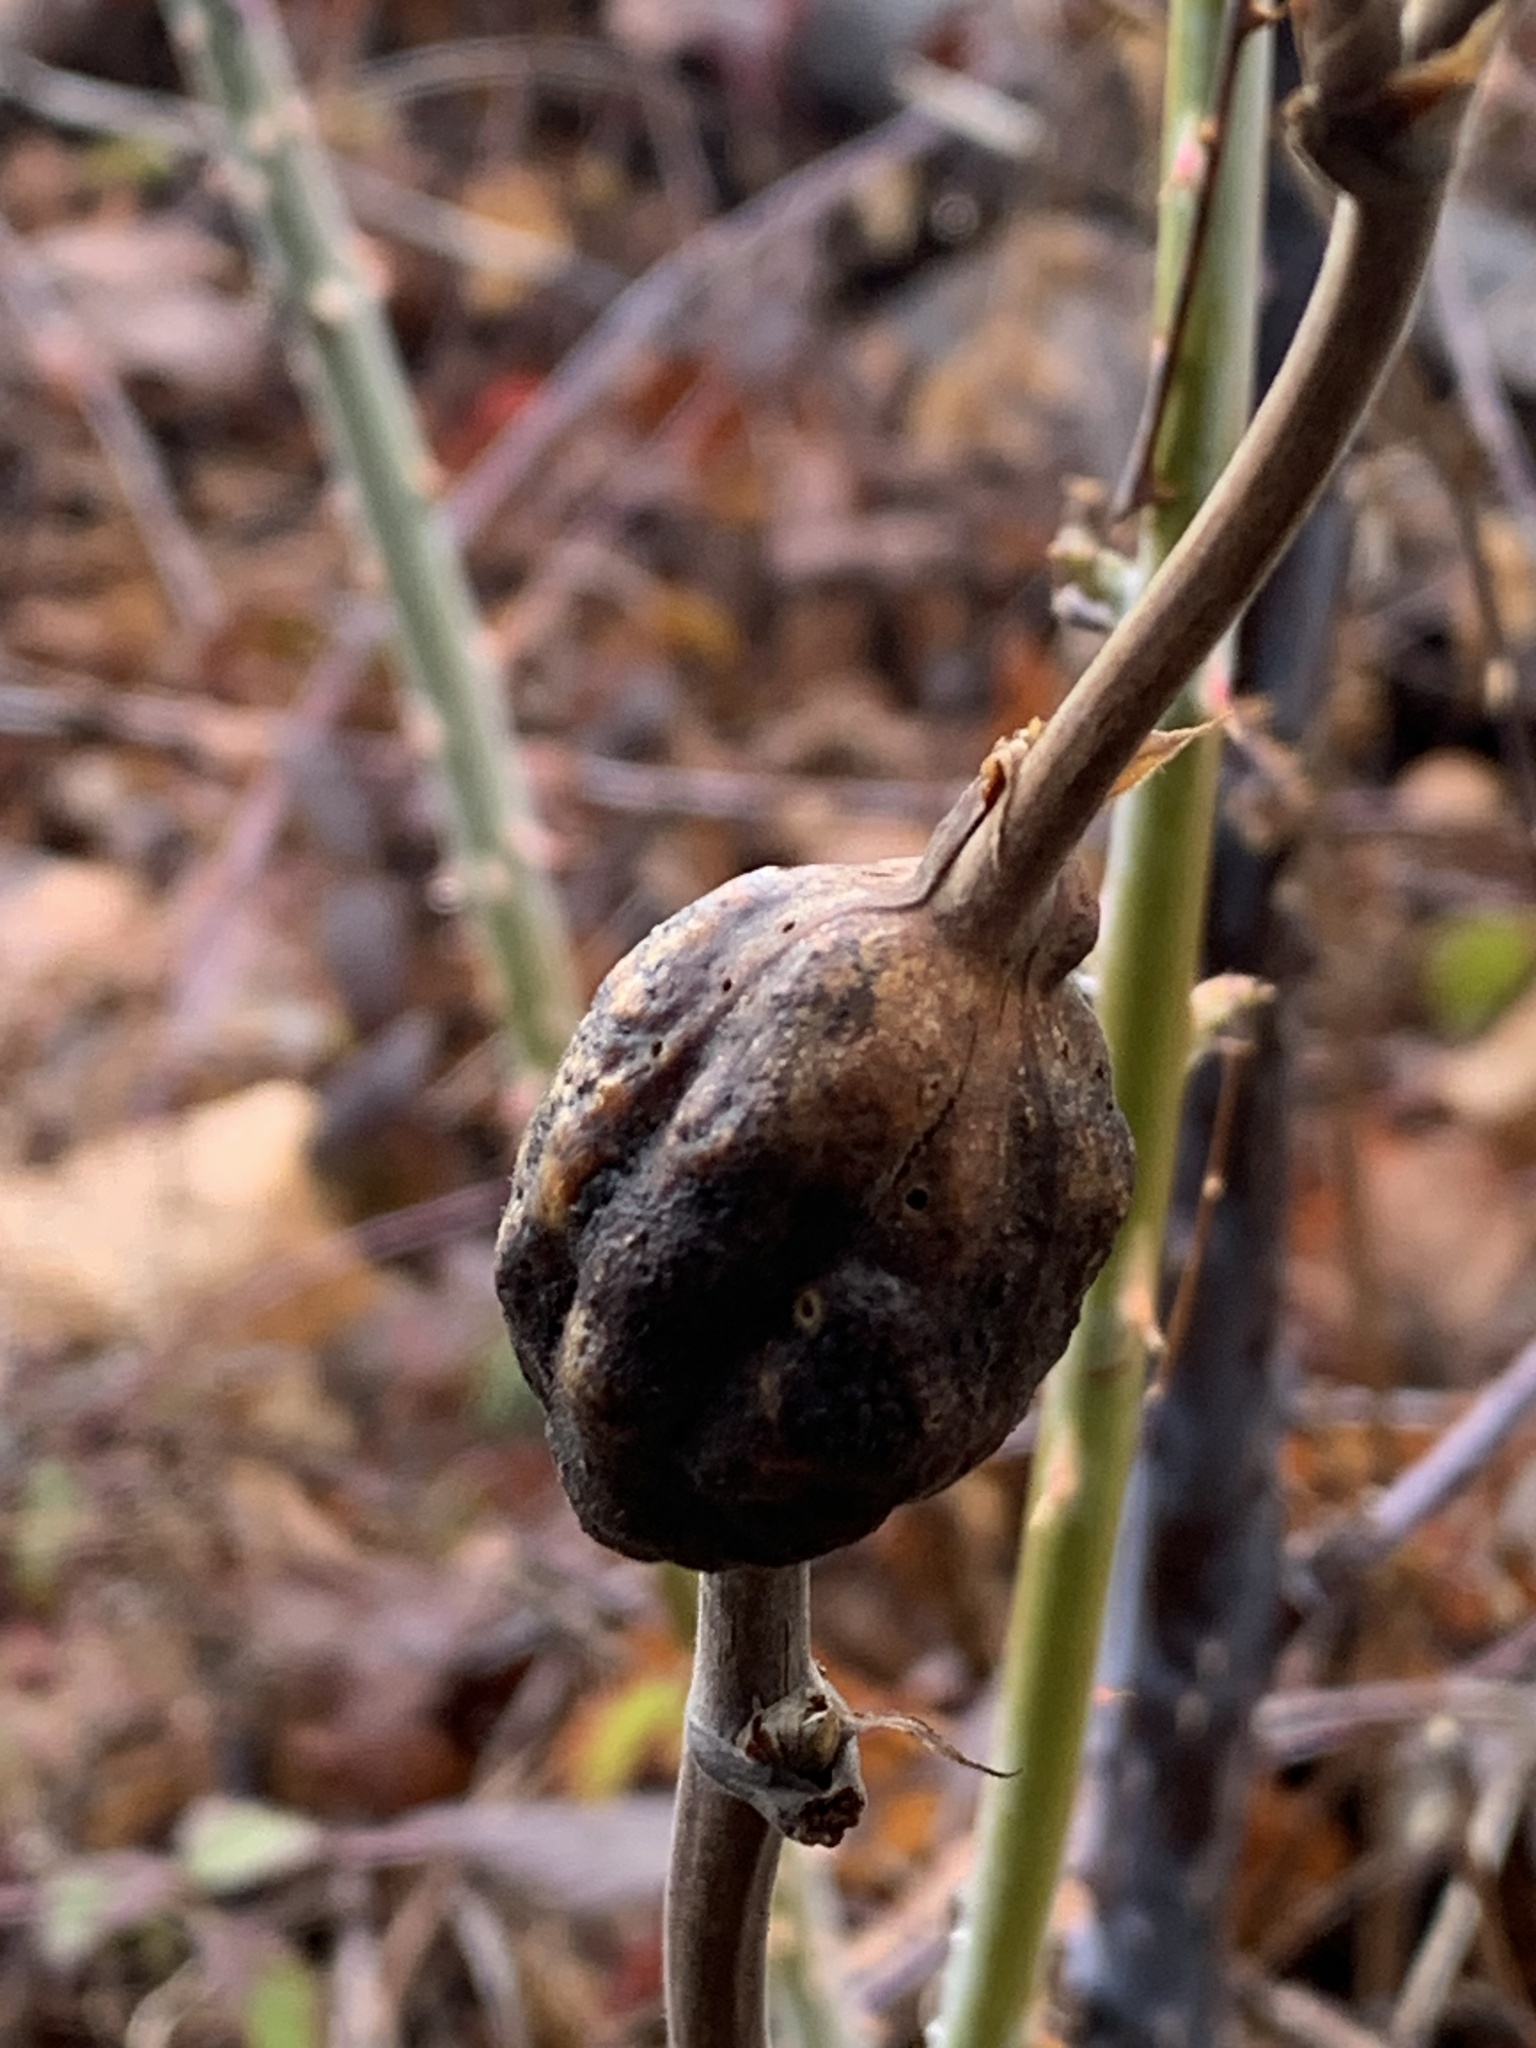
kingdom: Animalia
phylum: Arthropoda
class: Insecta
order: Hymenoptera
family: Cynipidae
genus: Diastrophus
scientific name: Diastrophus
